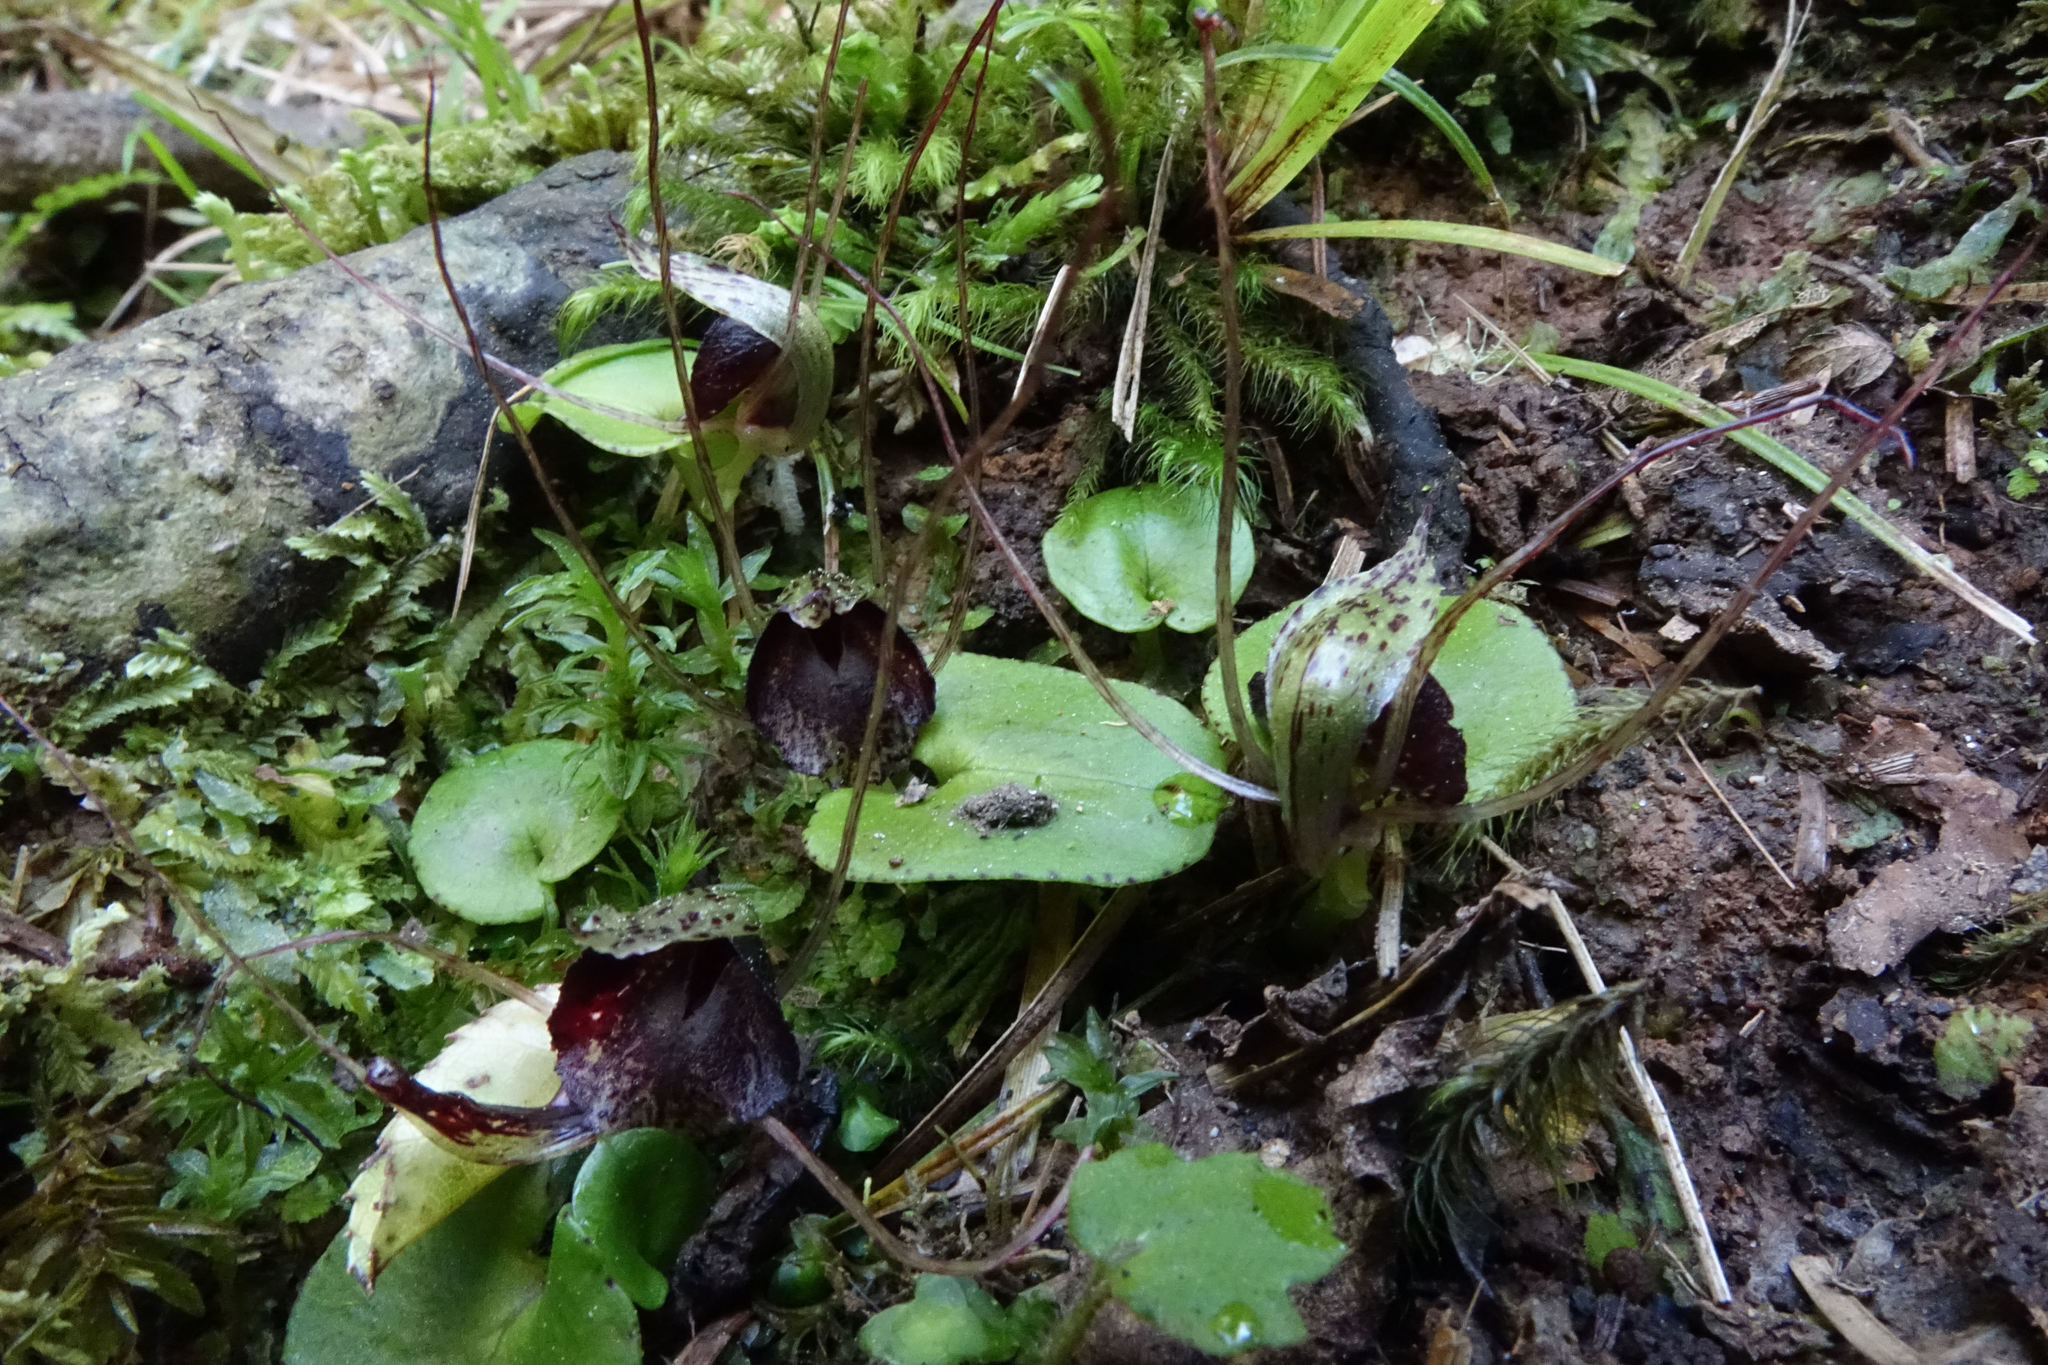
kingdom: Plantae
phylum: Tracheophyta
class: Liliopsida
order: Asparagales
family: Orchidaceae
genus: Corybas
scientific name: Corybas iridescens
